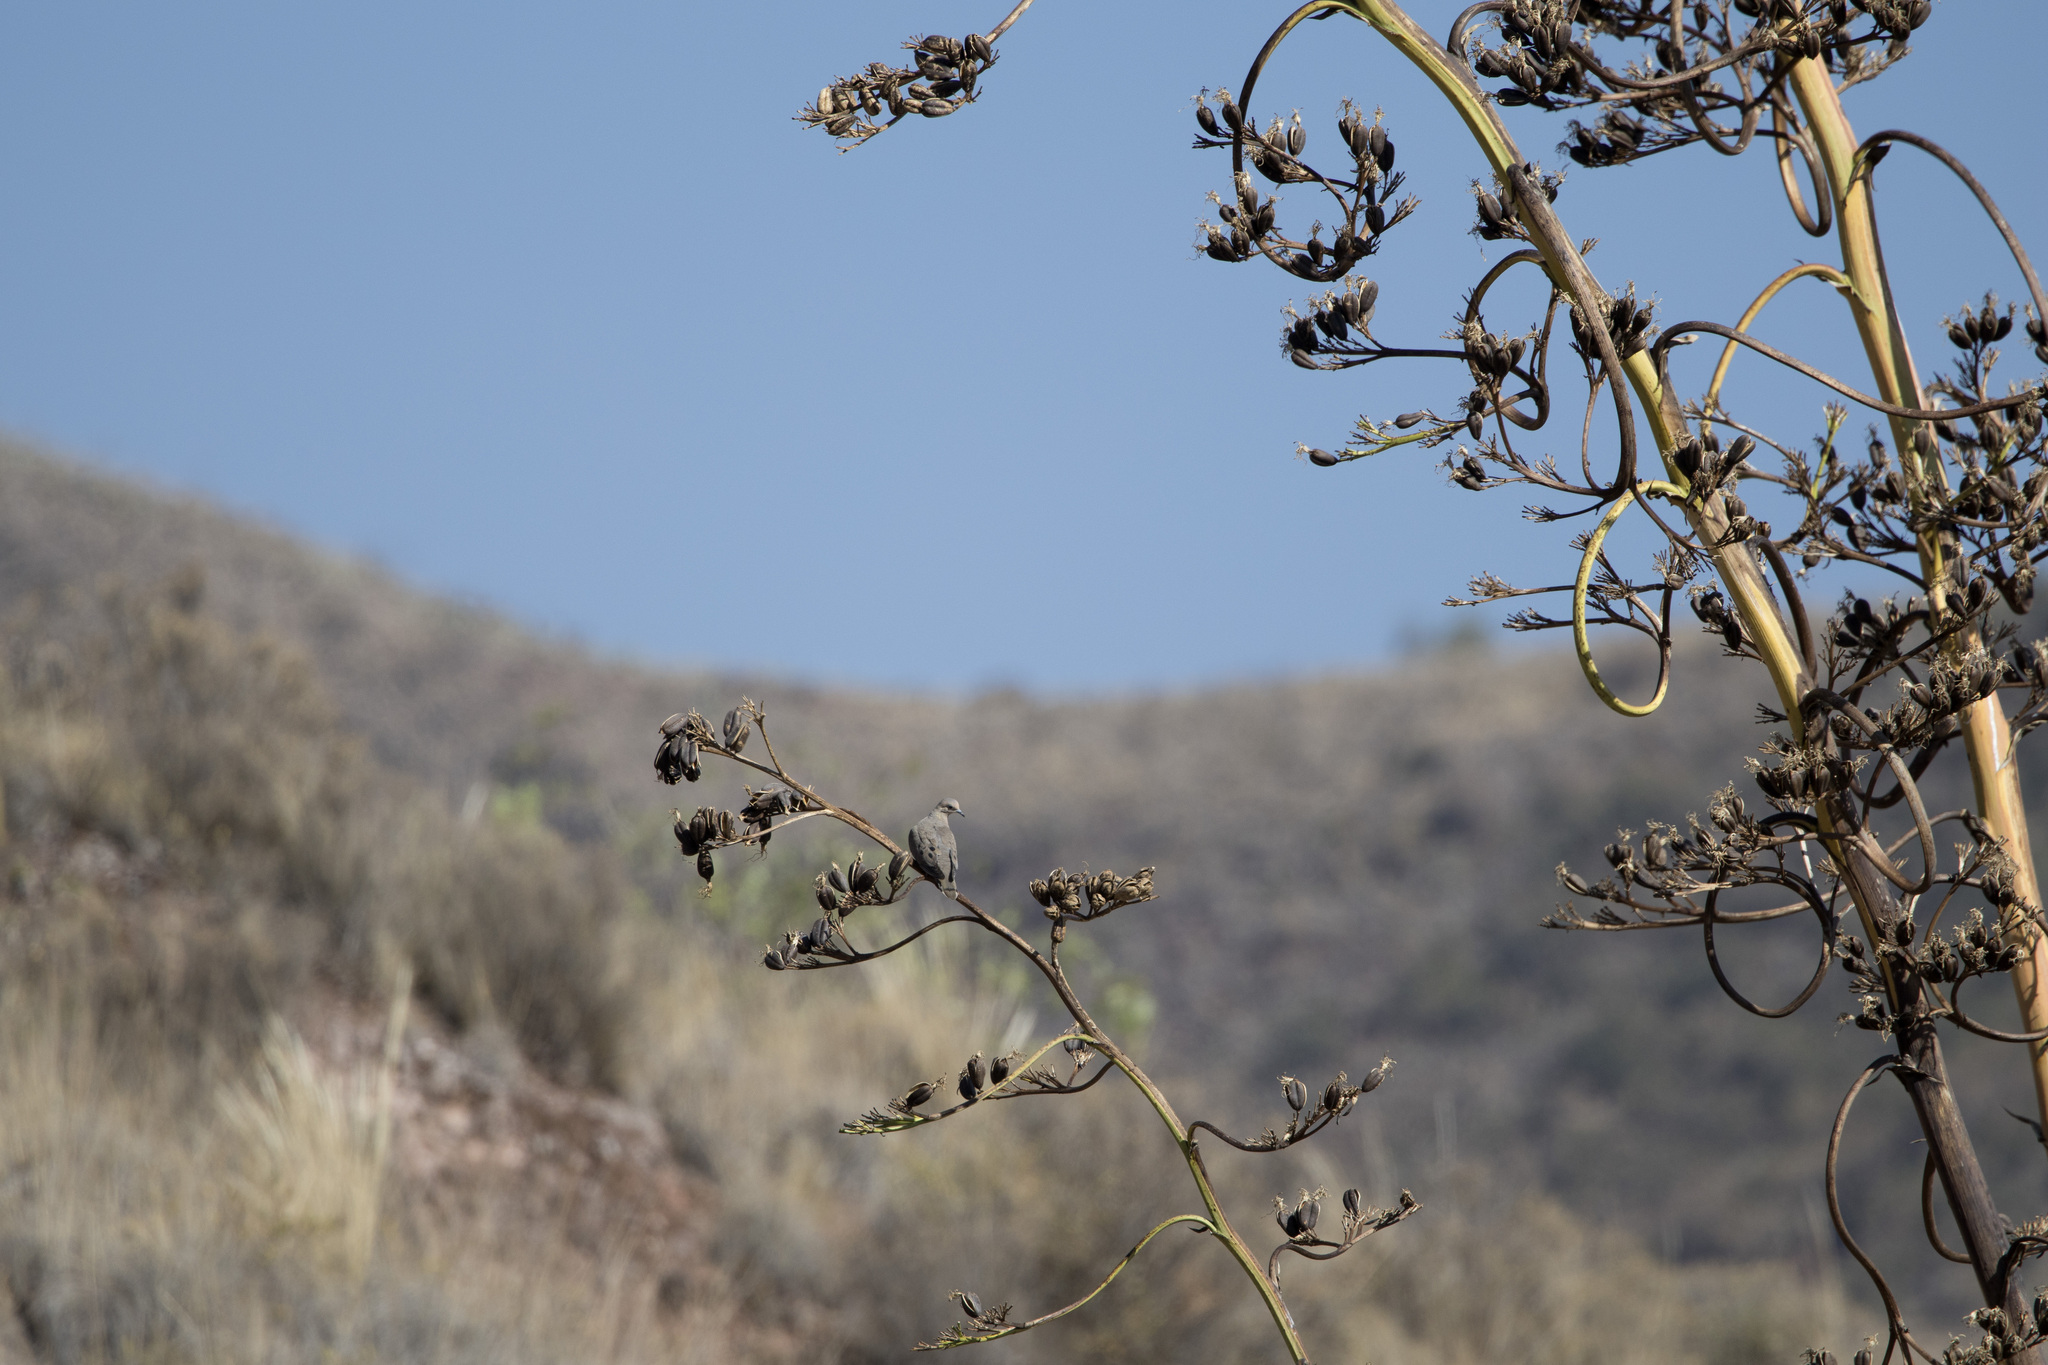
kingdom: Animalia
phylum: Chordata
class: Aves
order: Columbiformes
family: Columbidae
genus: Zenaida
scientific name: Zenaida auriculata
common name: Eared dove
